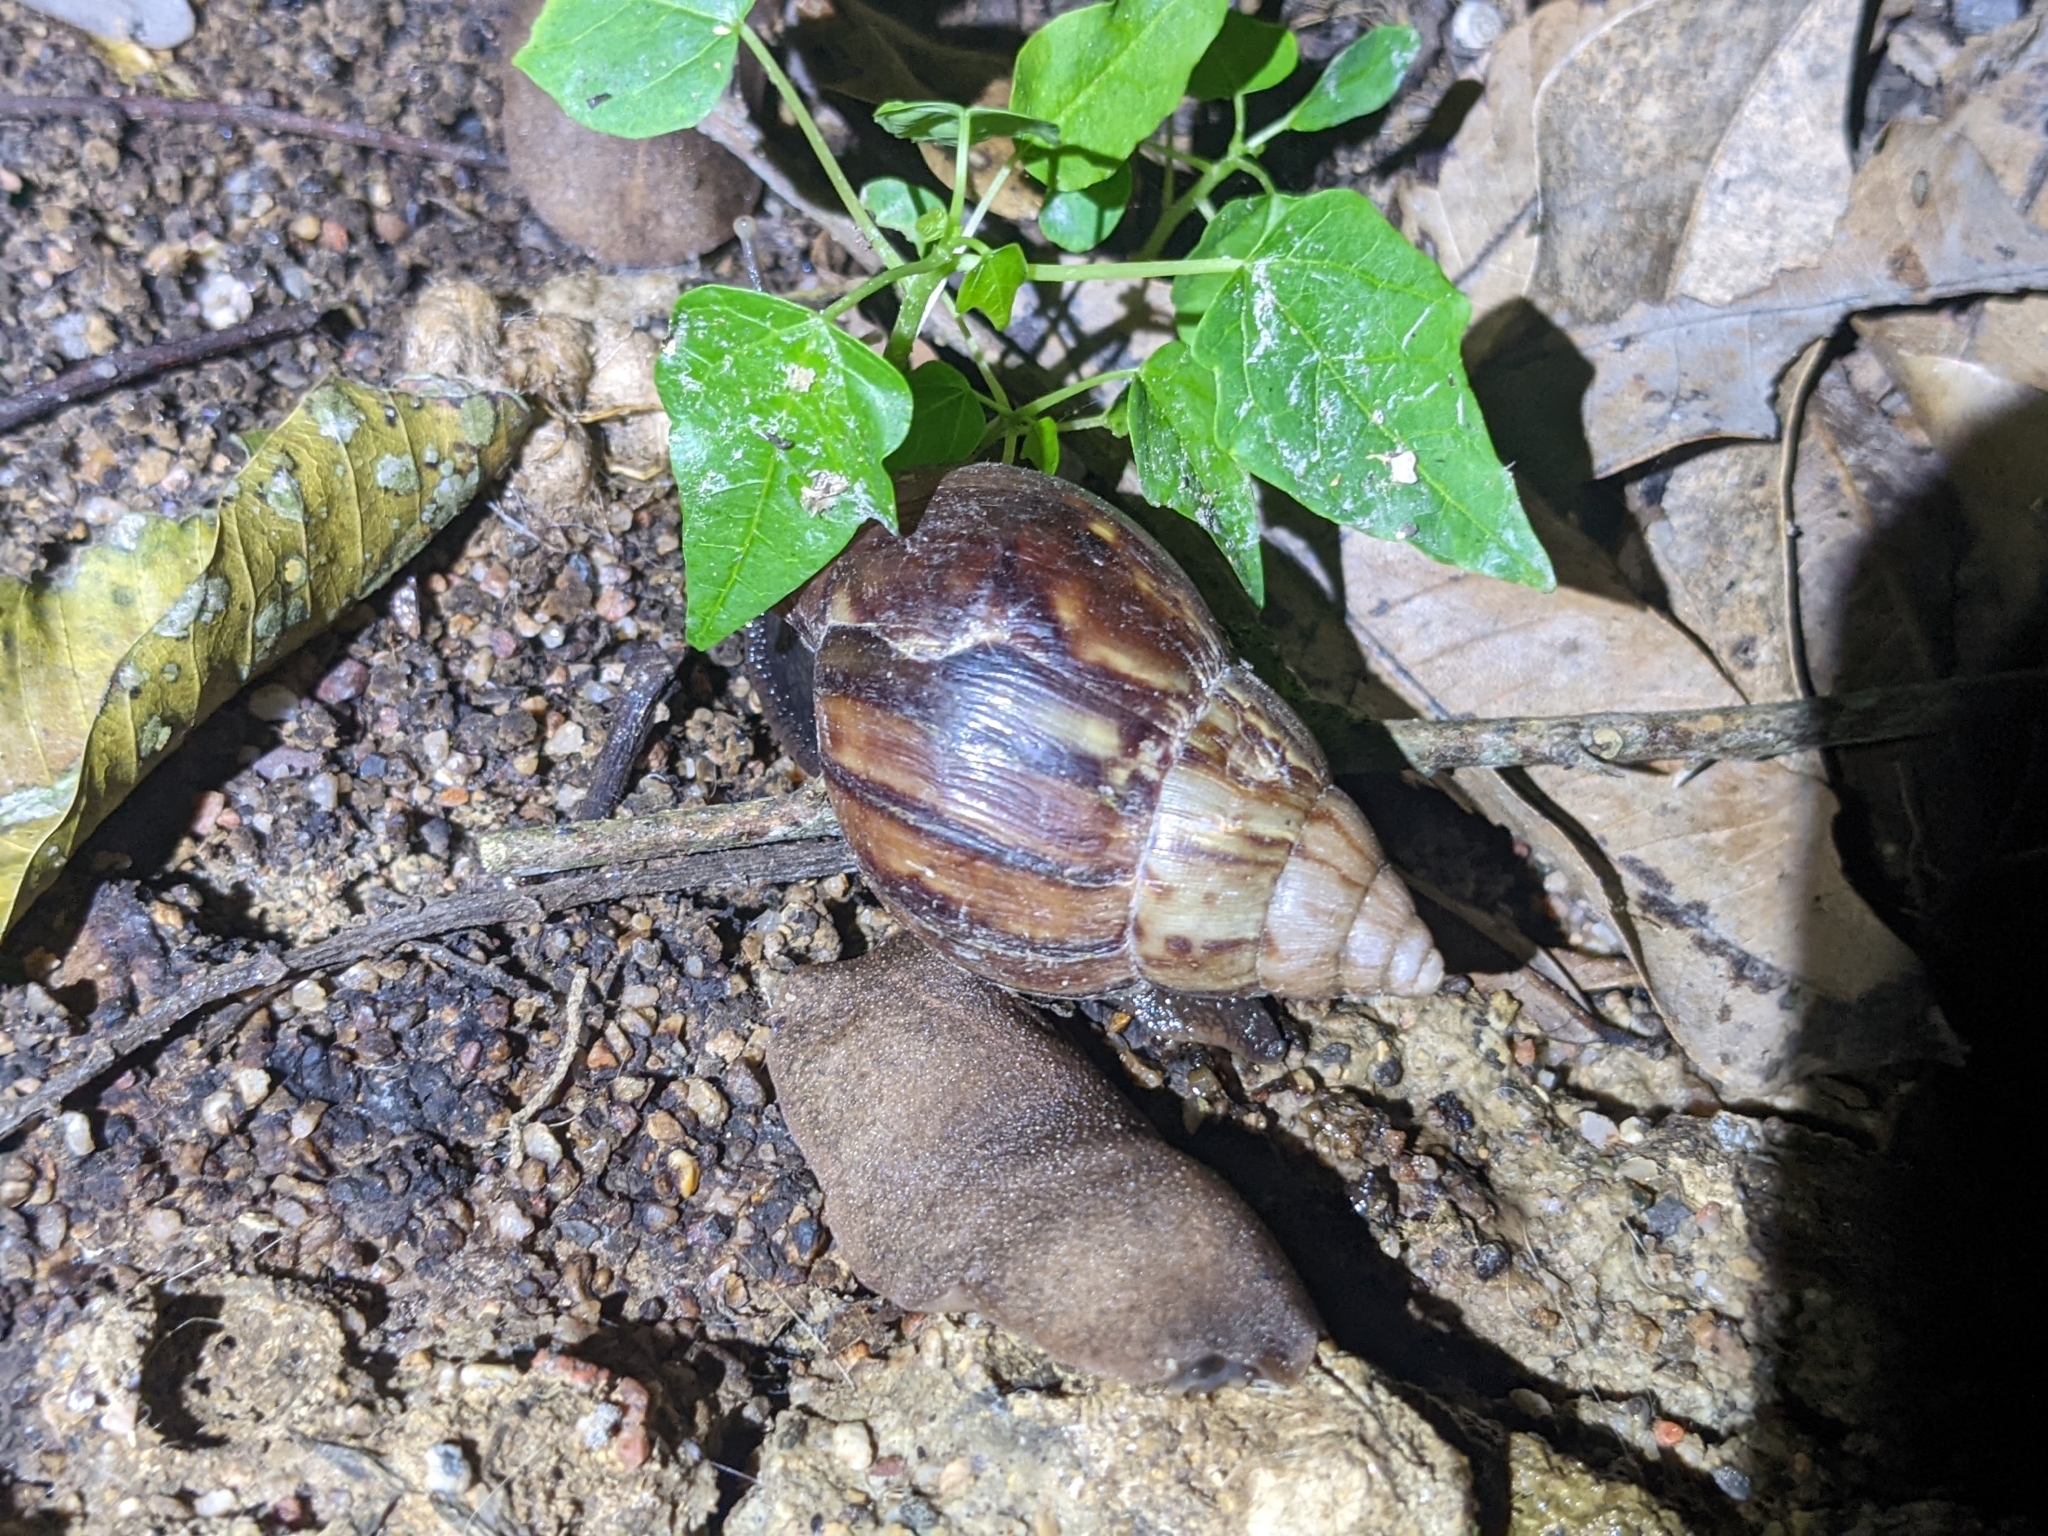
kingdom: Animalia
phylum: Mollusca
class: Gastropoda
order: Stylommatophora
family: Achatinidae
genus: Lissachatina
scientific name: Lissachatina fulica
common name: Giant african snail
